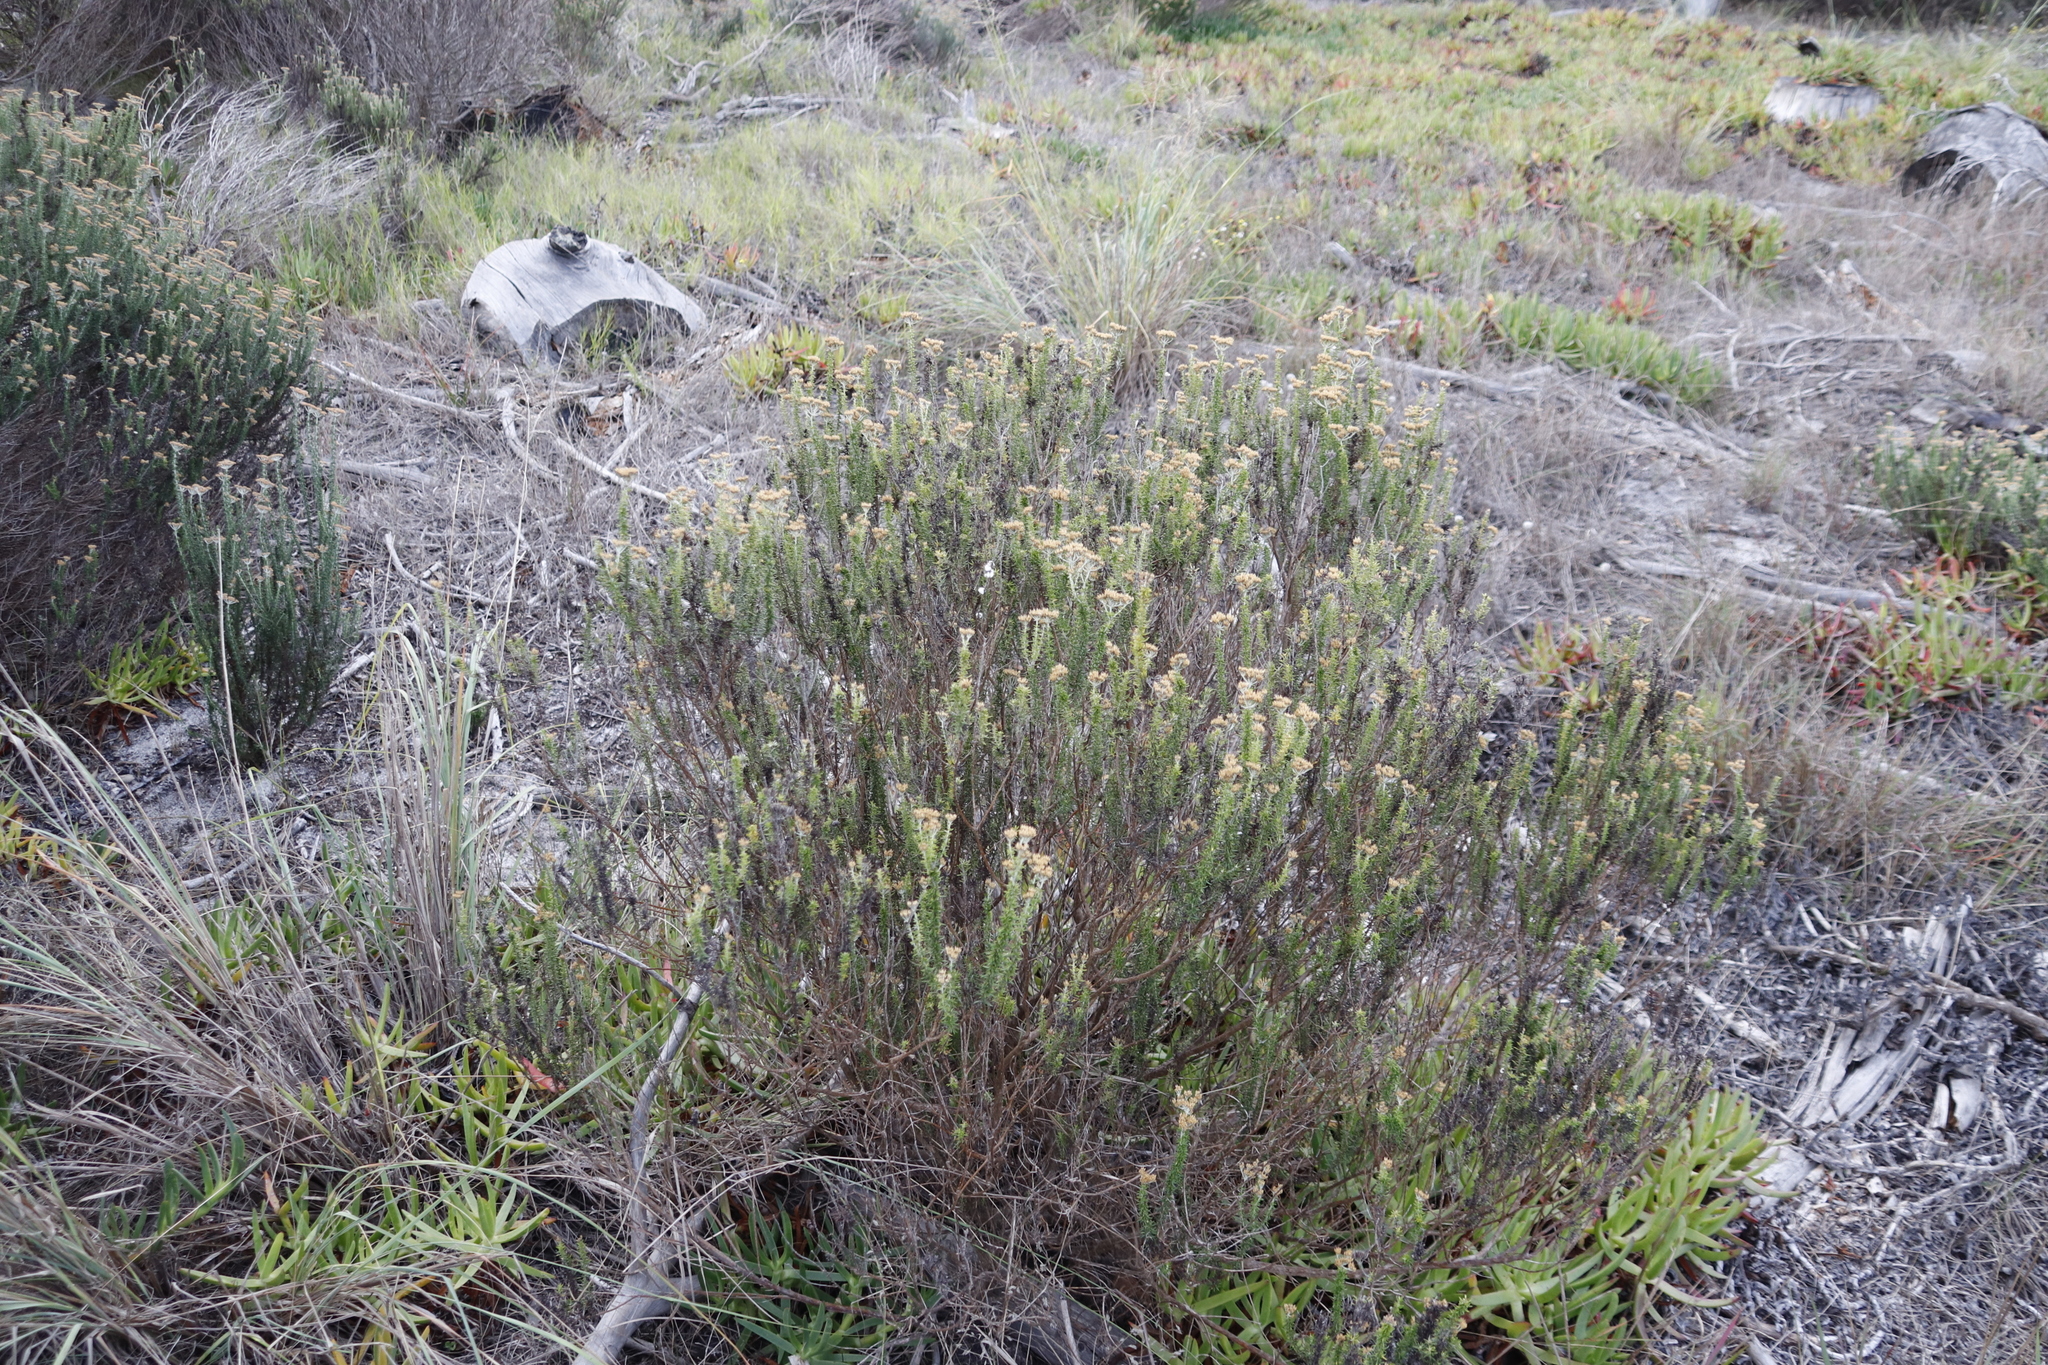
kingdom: Plantae
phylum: Tracheophyta
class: Magnoliopsida
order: Asterales
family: Asteraceae
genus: Metalasia
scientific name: Metalasia densa
